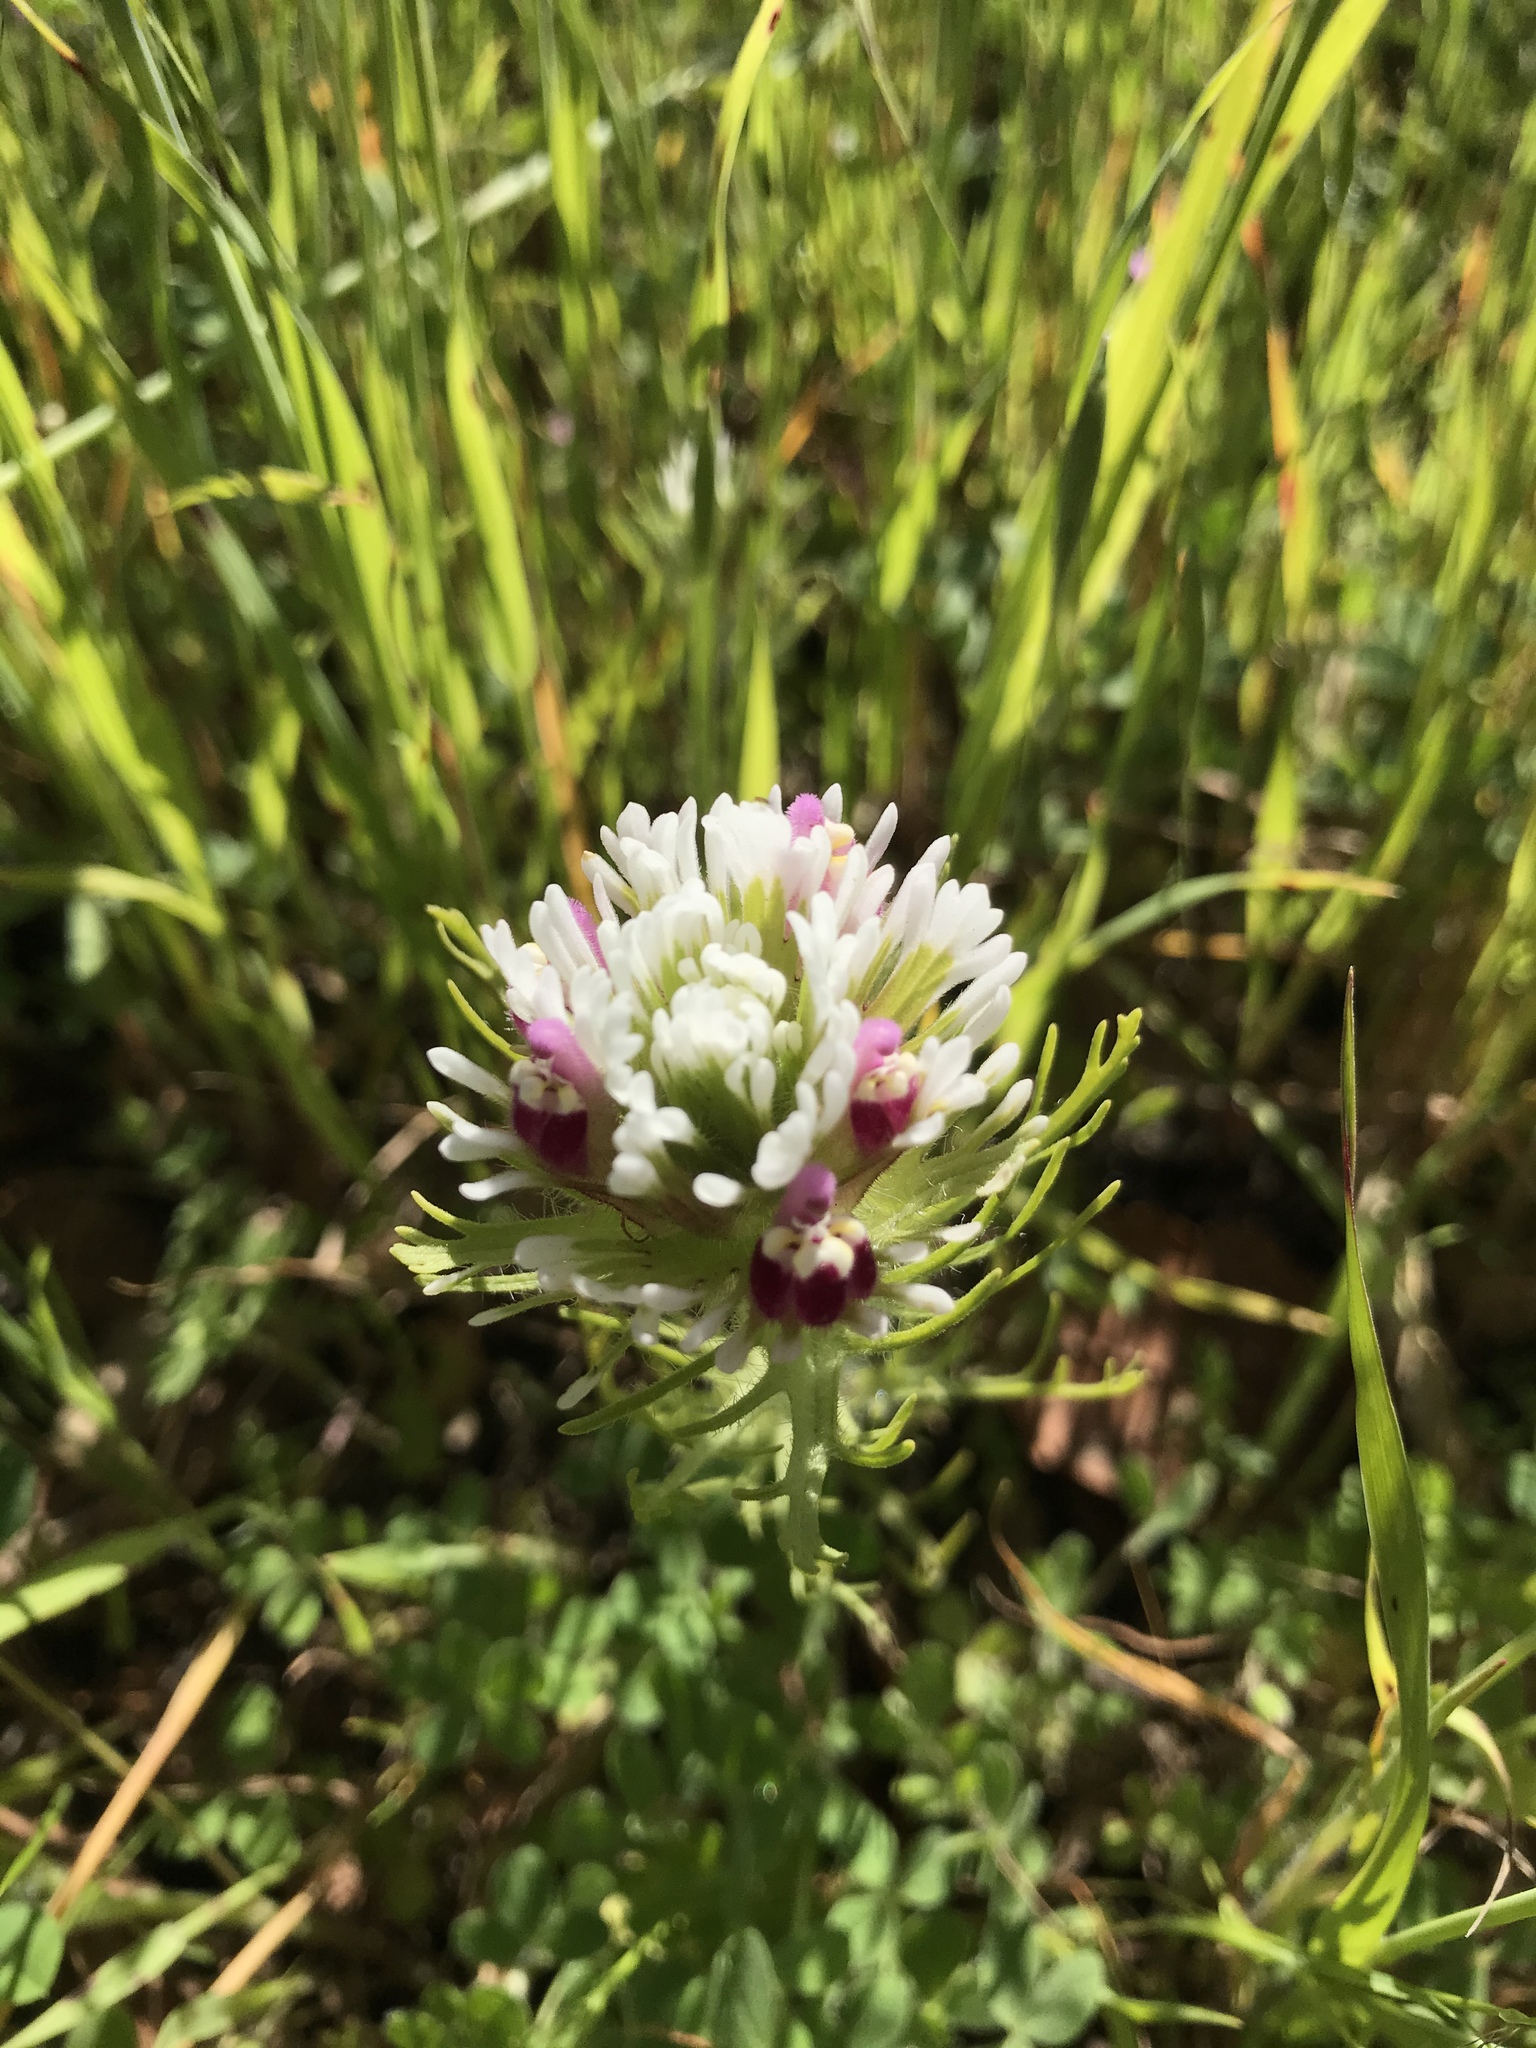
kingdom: Plantae
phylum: Tracheophyta
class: Magnoliopsida
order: Lamiales
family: Orobanchaceae
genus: Castilleja
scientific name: Castilleja exserta
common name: Purple owl-clover
